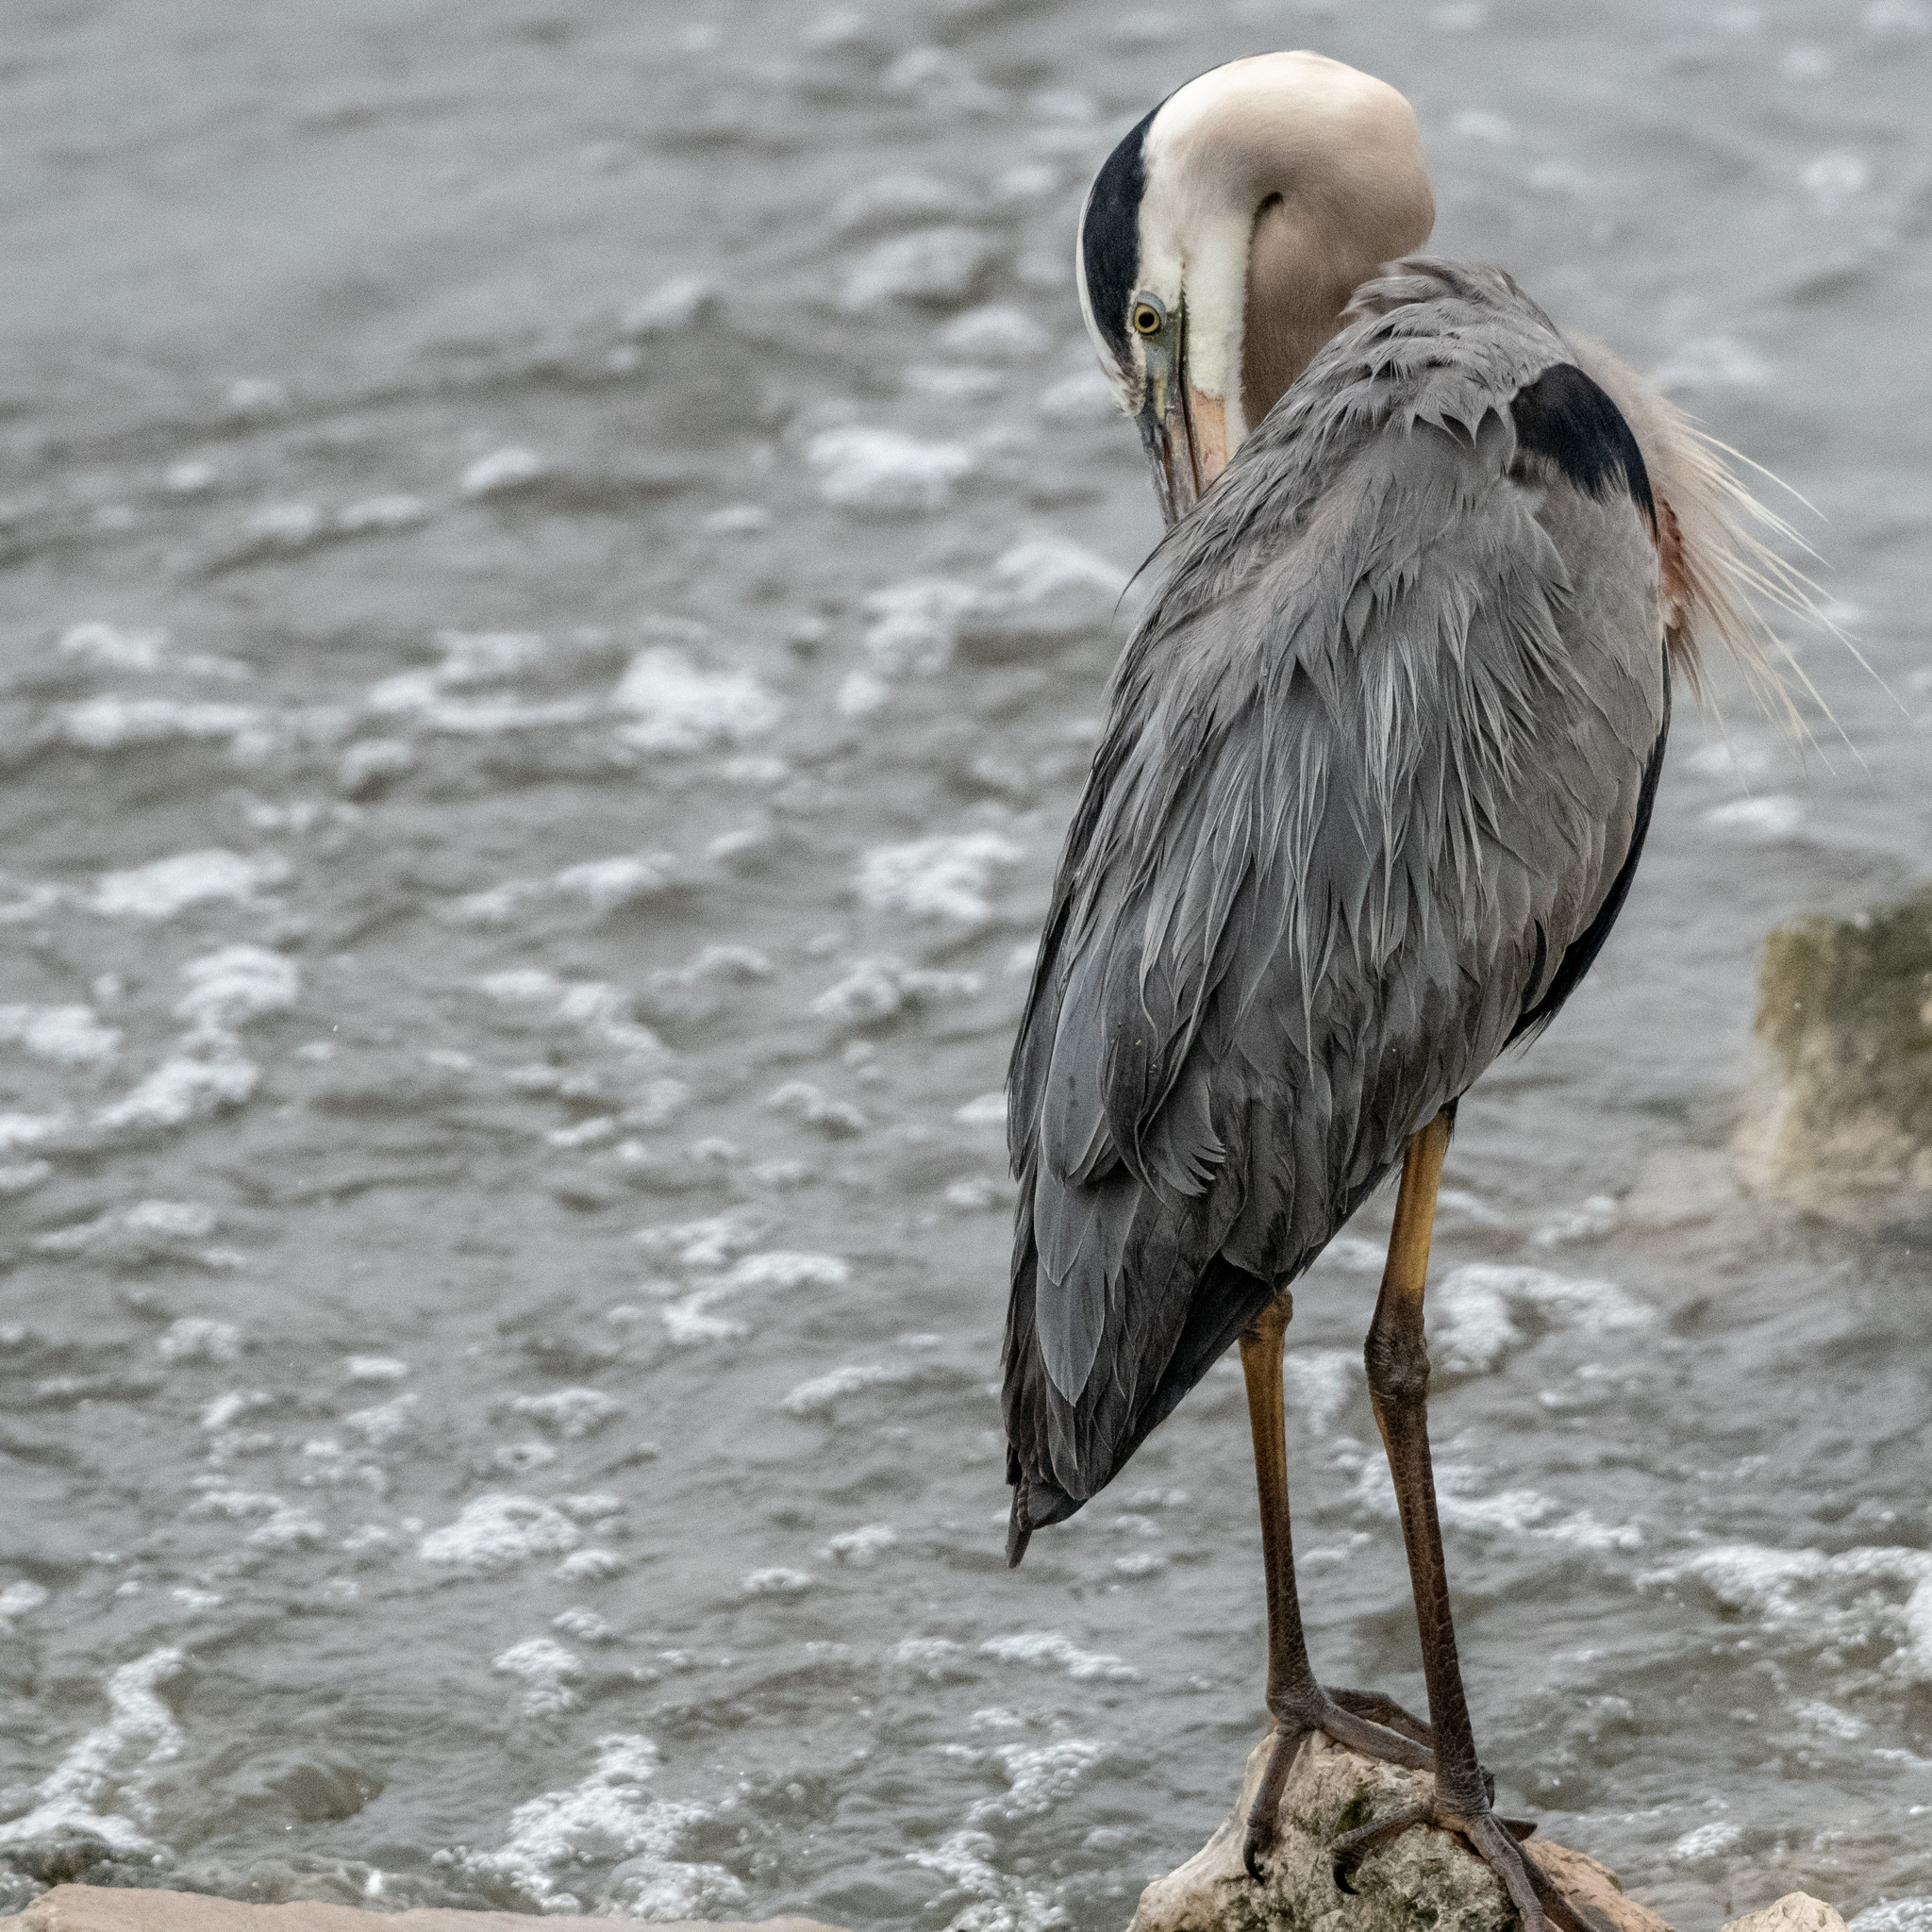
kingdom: Animalia
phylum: Chordata
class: Aves
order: Pelecaniformes
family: Ardeidae
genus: Ardea
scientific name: Ardea herodias
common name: Great blue heron
